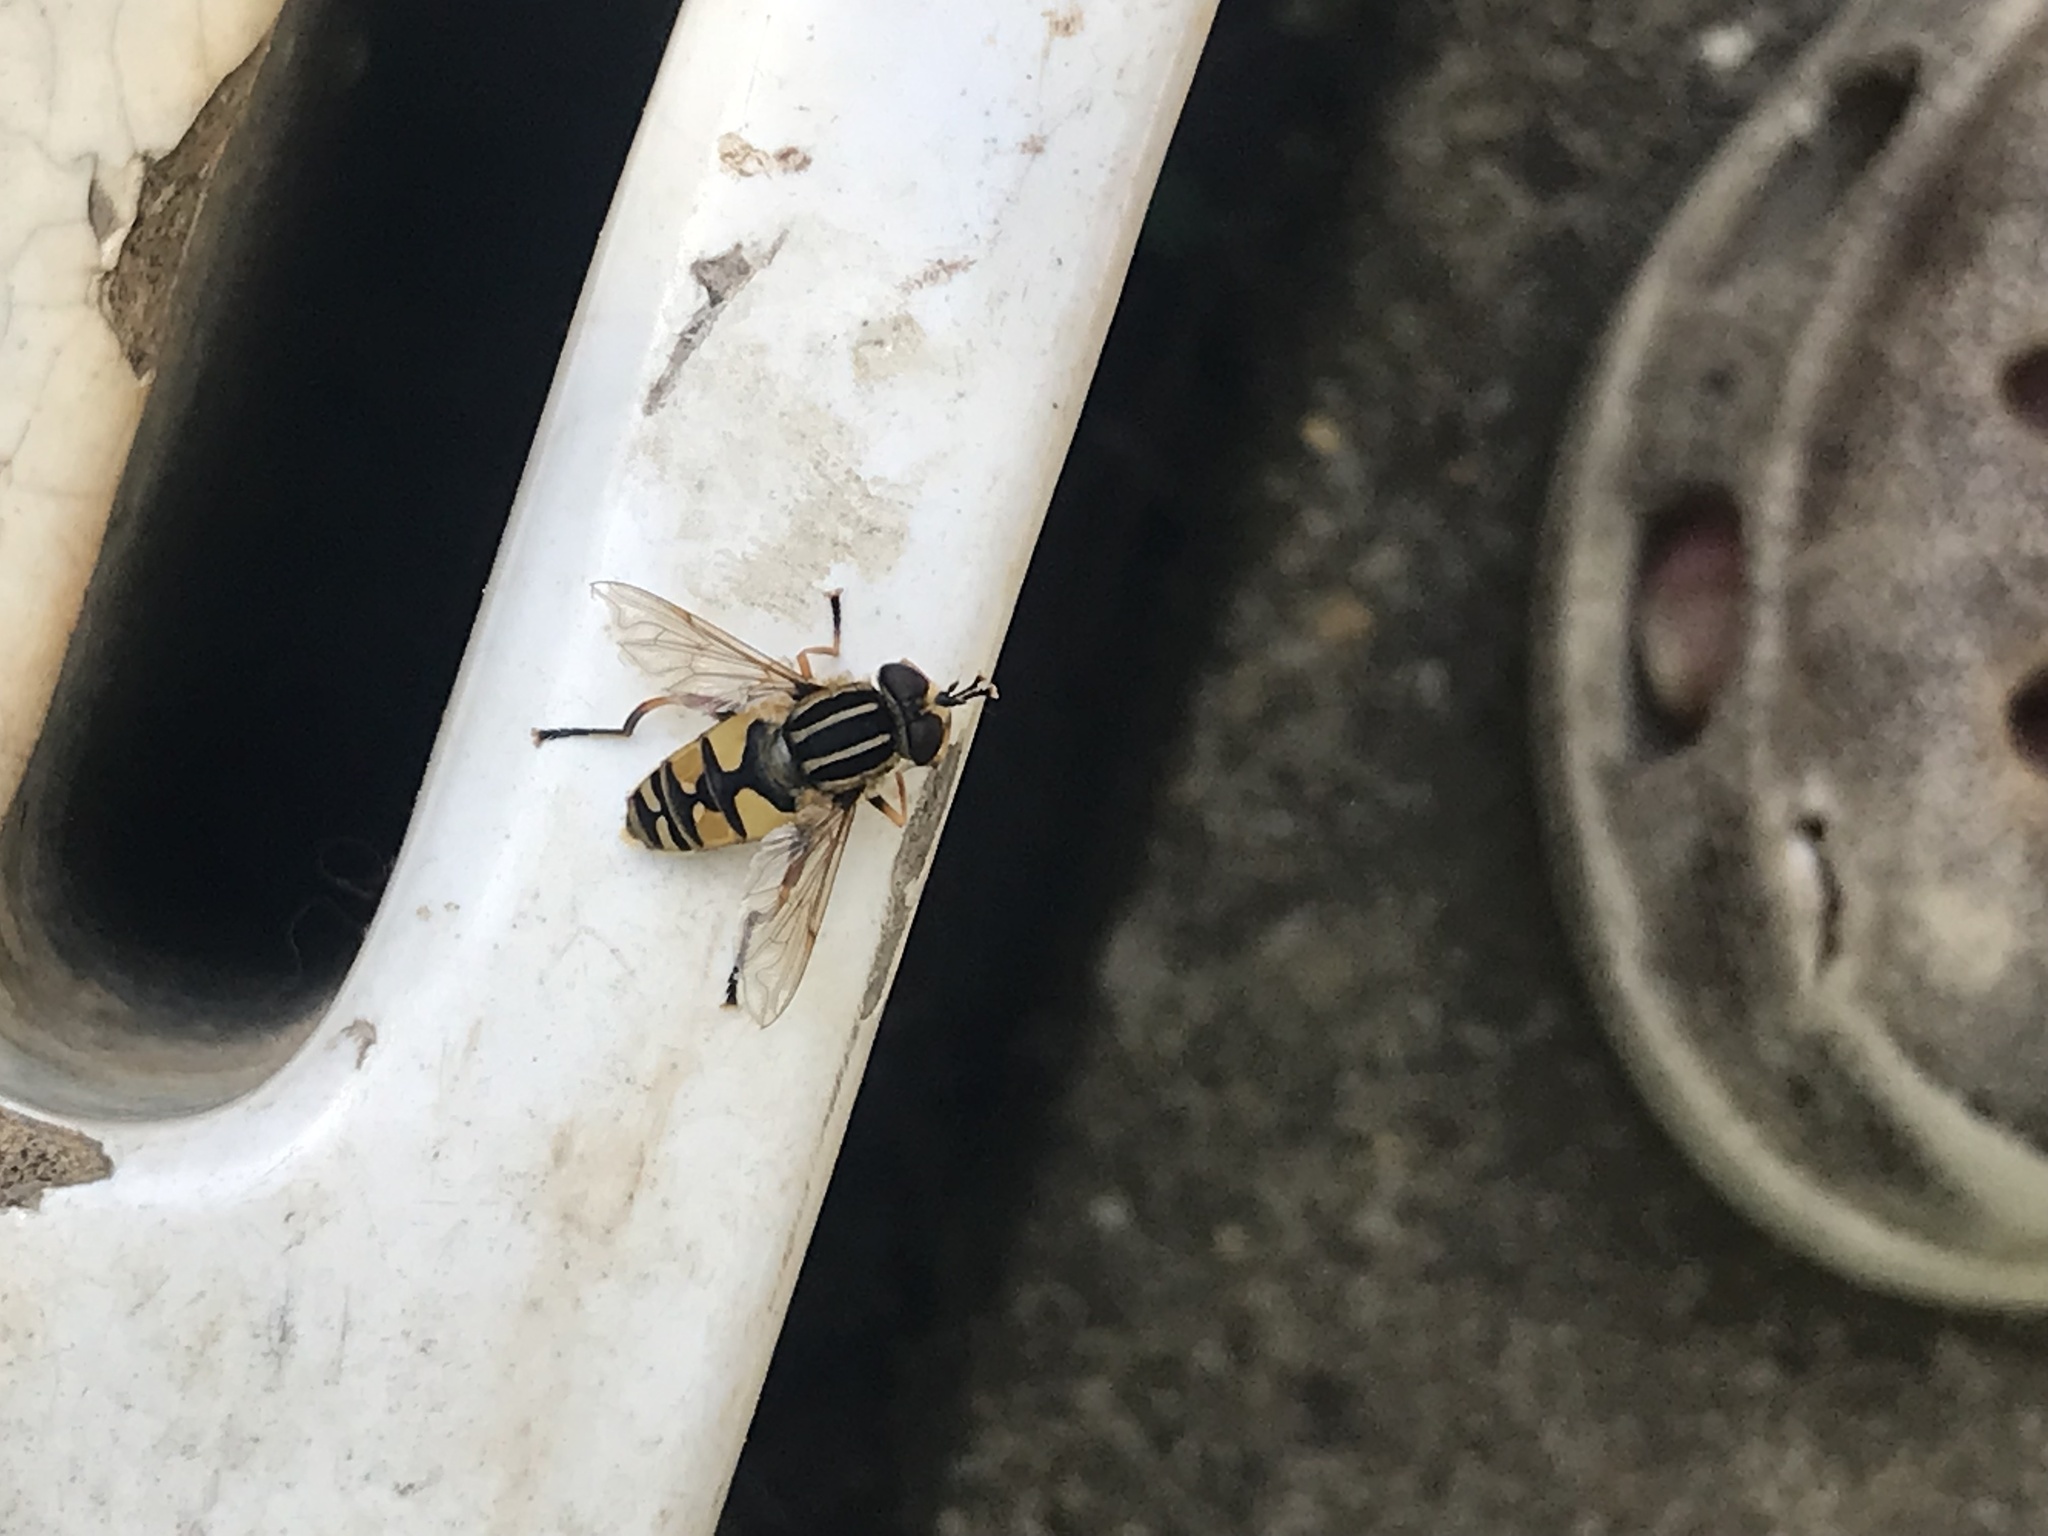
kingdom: Animalia
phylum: Arthropoda
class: Insecta
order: Diptera
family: Syrphidae
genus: Helophilus
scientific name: Helophilus pendulus
